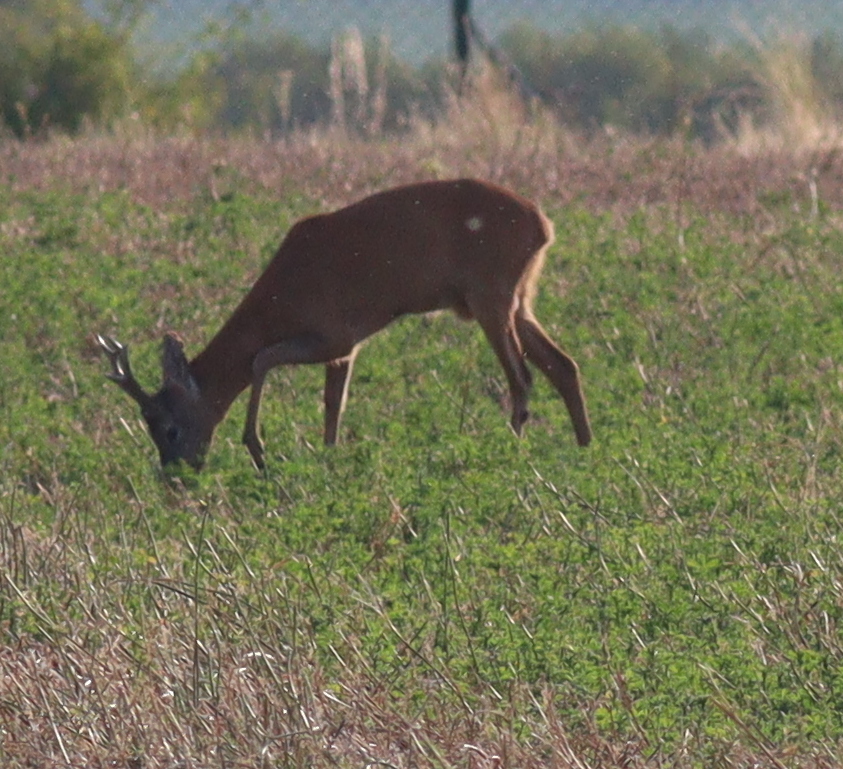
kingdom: Animalia
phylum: Chordata
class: Mammalia
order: Artiodactyla
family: Cervidae
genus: Capreolus
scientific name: Capreolus capreolus
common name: Western roe deer
